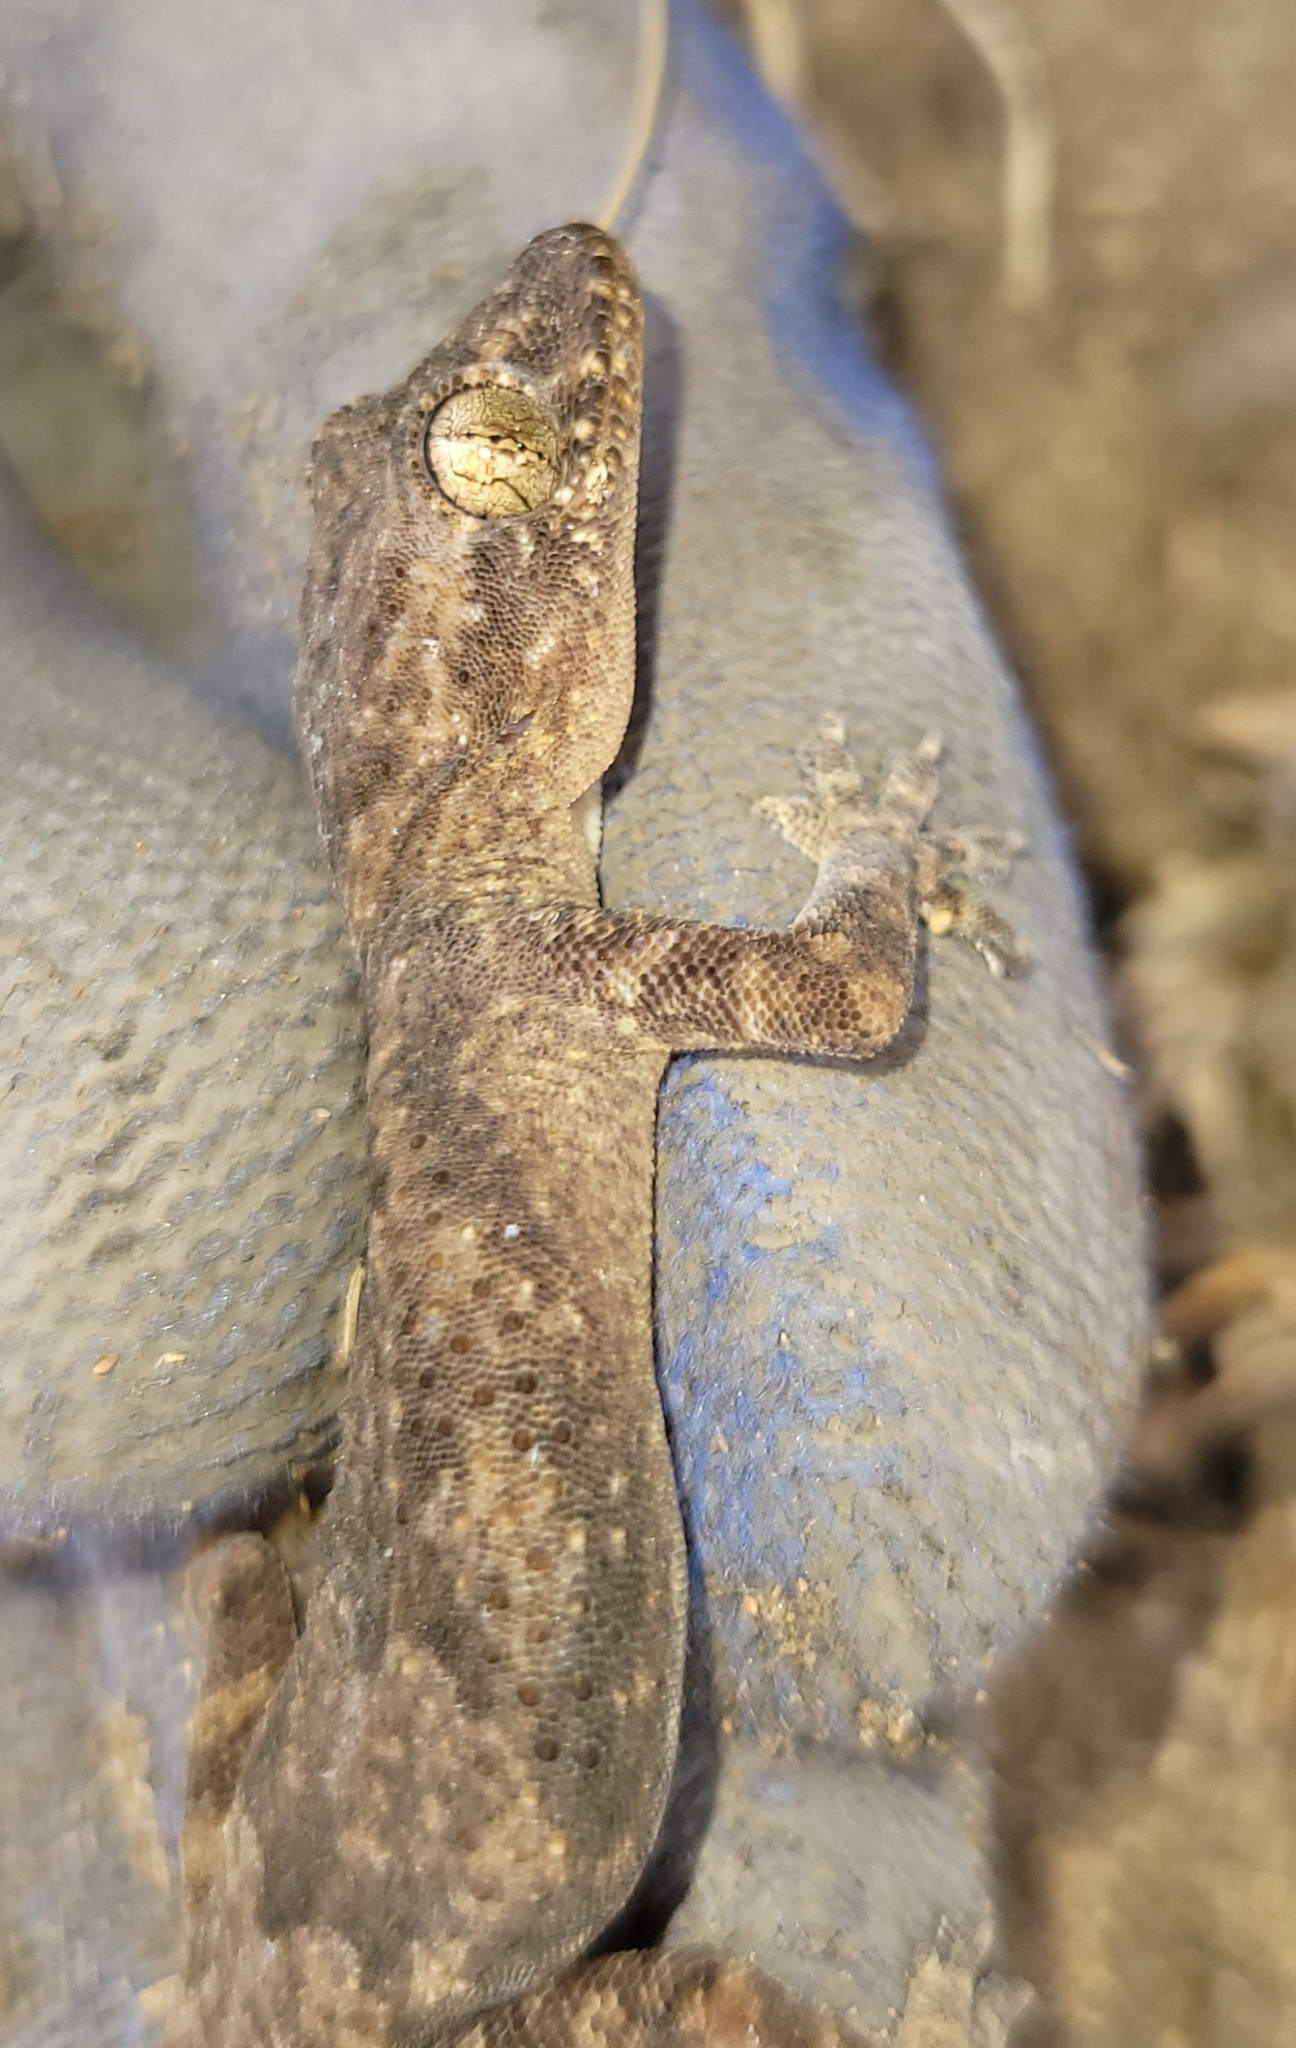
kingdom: Animalia
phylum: Chordata
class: Squamata
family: Gekkonidae
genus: Hemidactylus
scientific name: Hemidactylus mabouia
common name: House gecko
